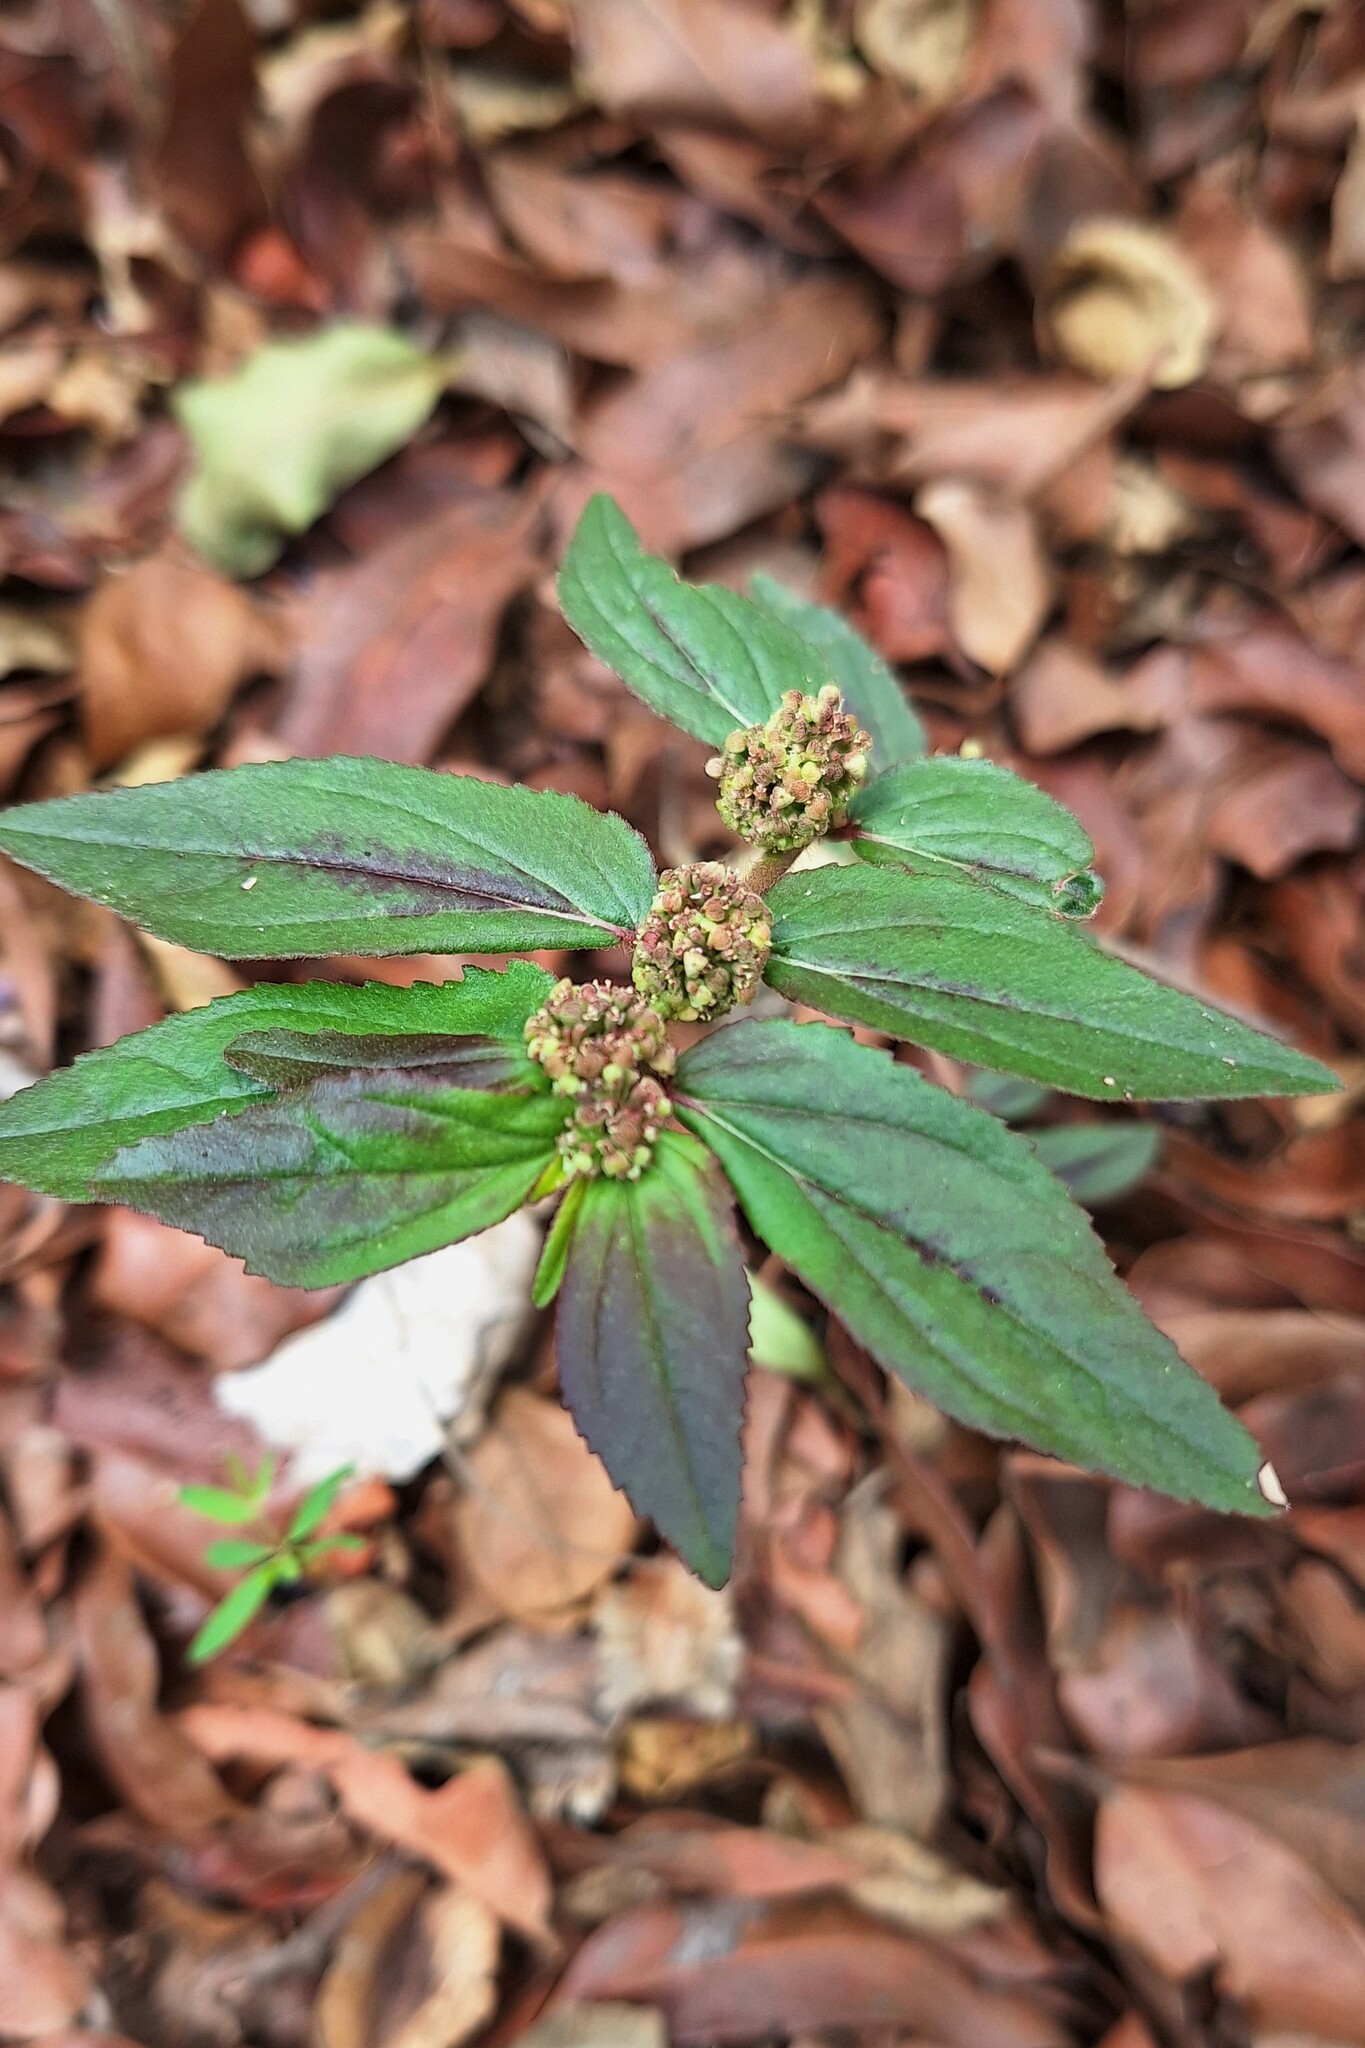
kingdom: Plantae
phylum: Tracheophyta
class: Magnoliopsida
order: Malpighiales
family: Euphorbiaceae
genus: Euphorbia
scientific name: Euphorbia hirta
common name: Pillpod sandmat
